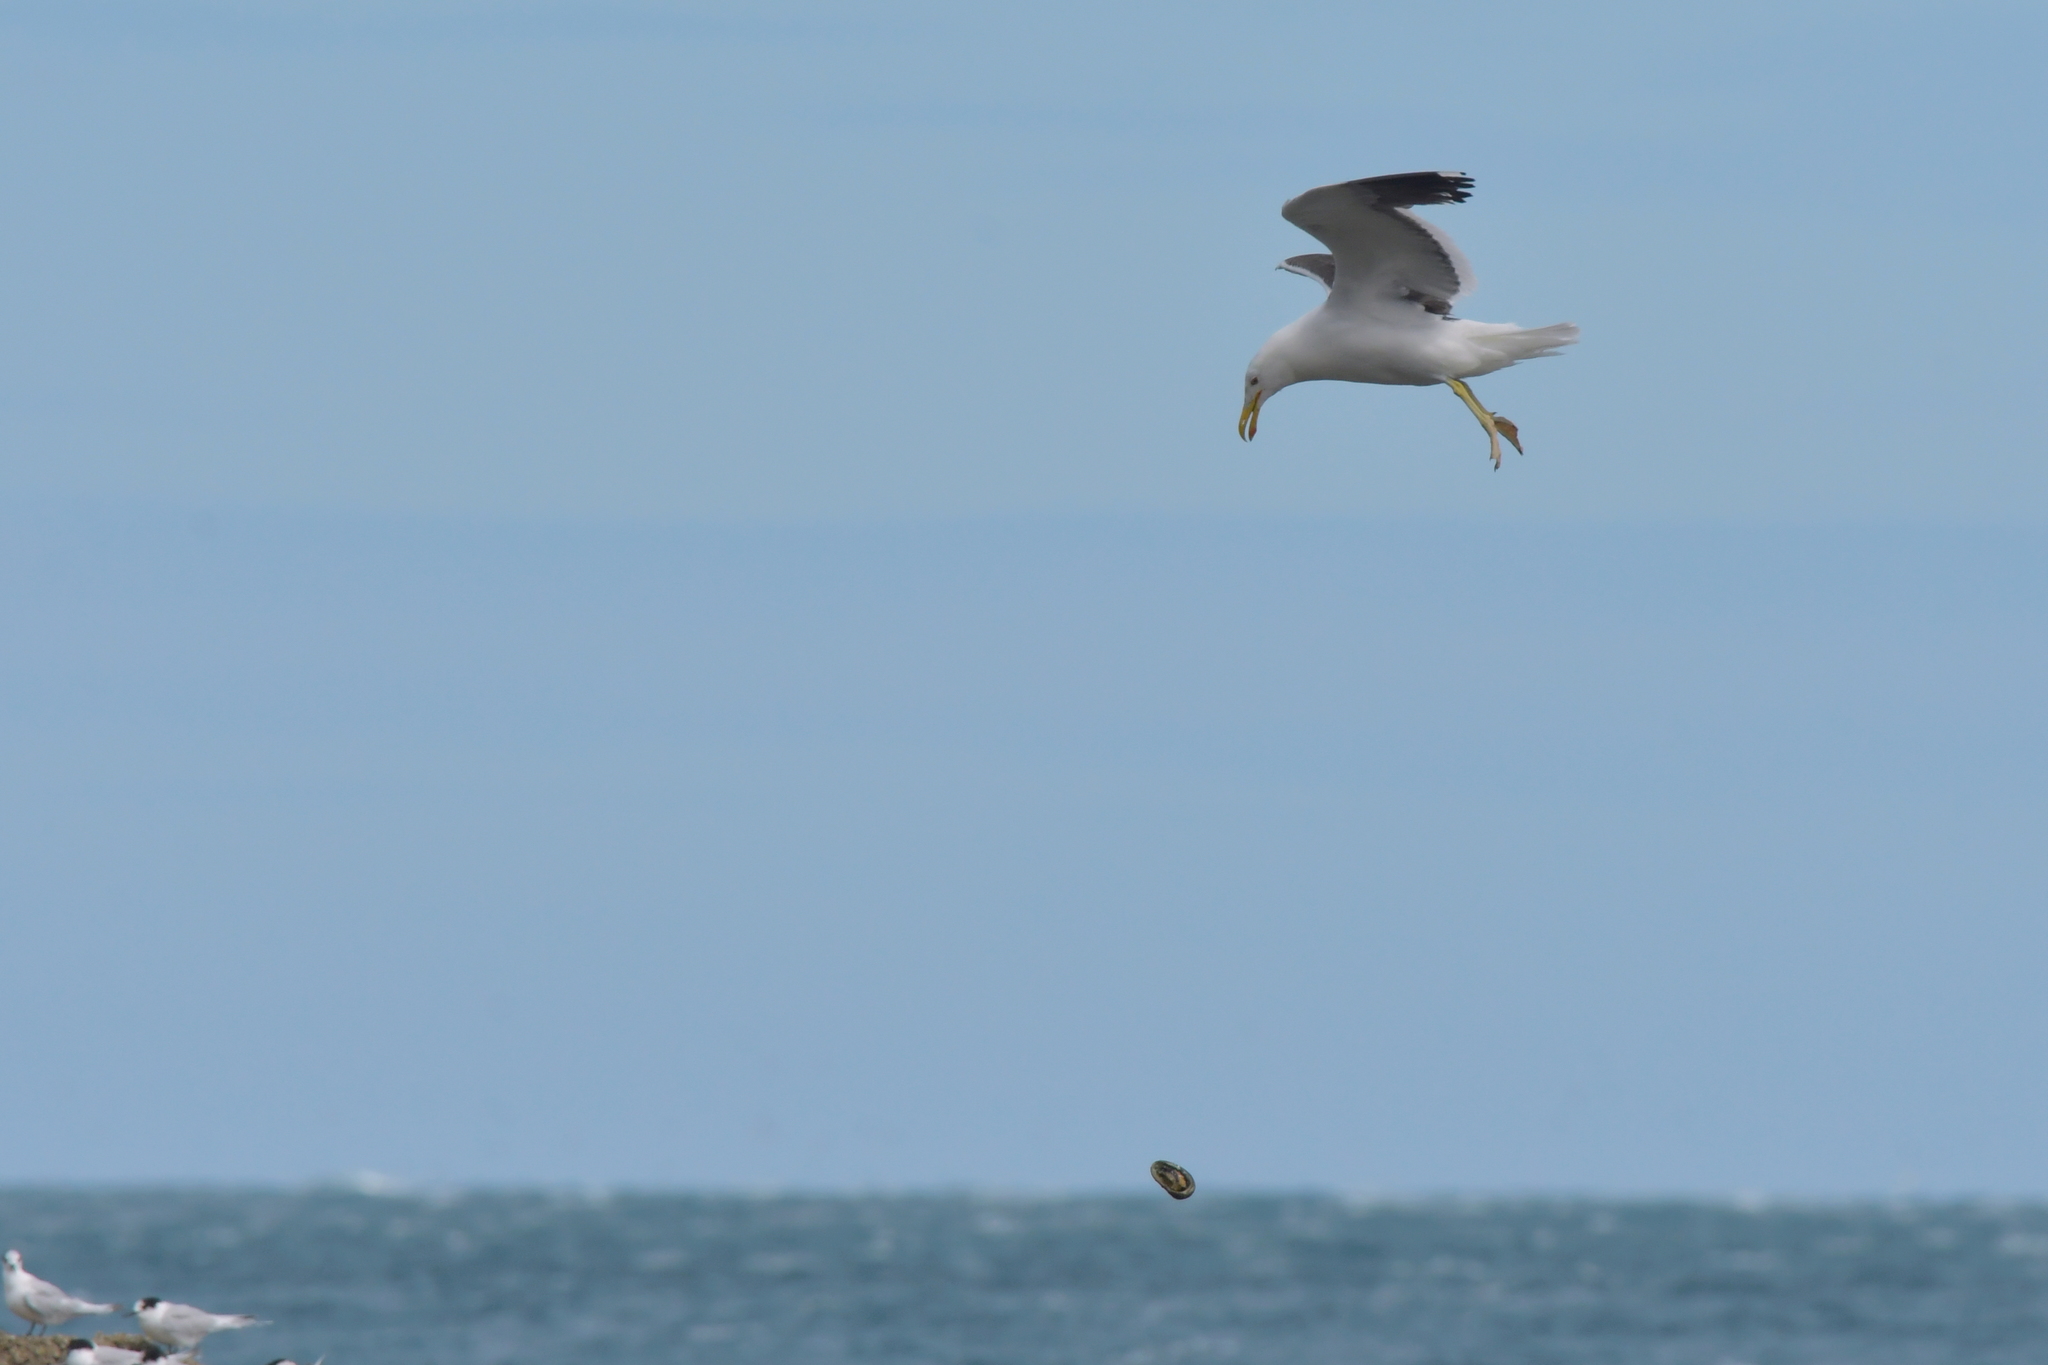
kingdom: Animalia
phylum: Chordata
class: Aves
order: Charadriiformes
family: Laridae
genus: Larus
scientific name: Larus dominicanus
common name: Kelp gull
